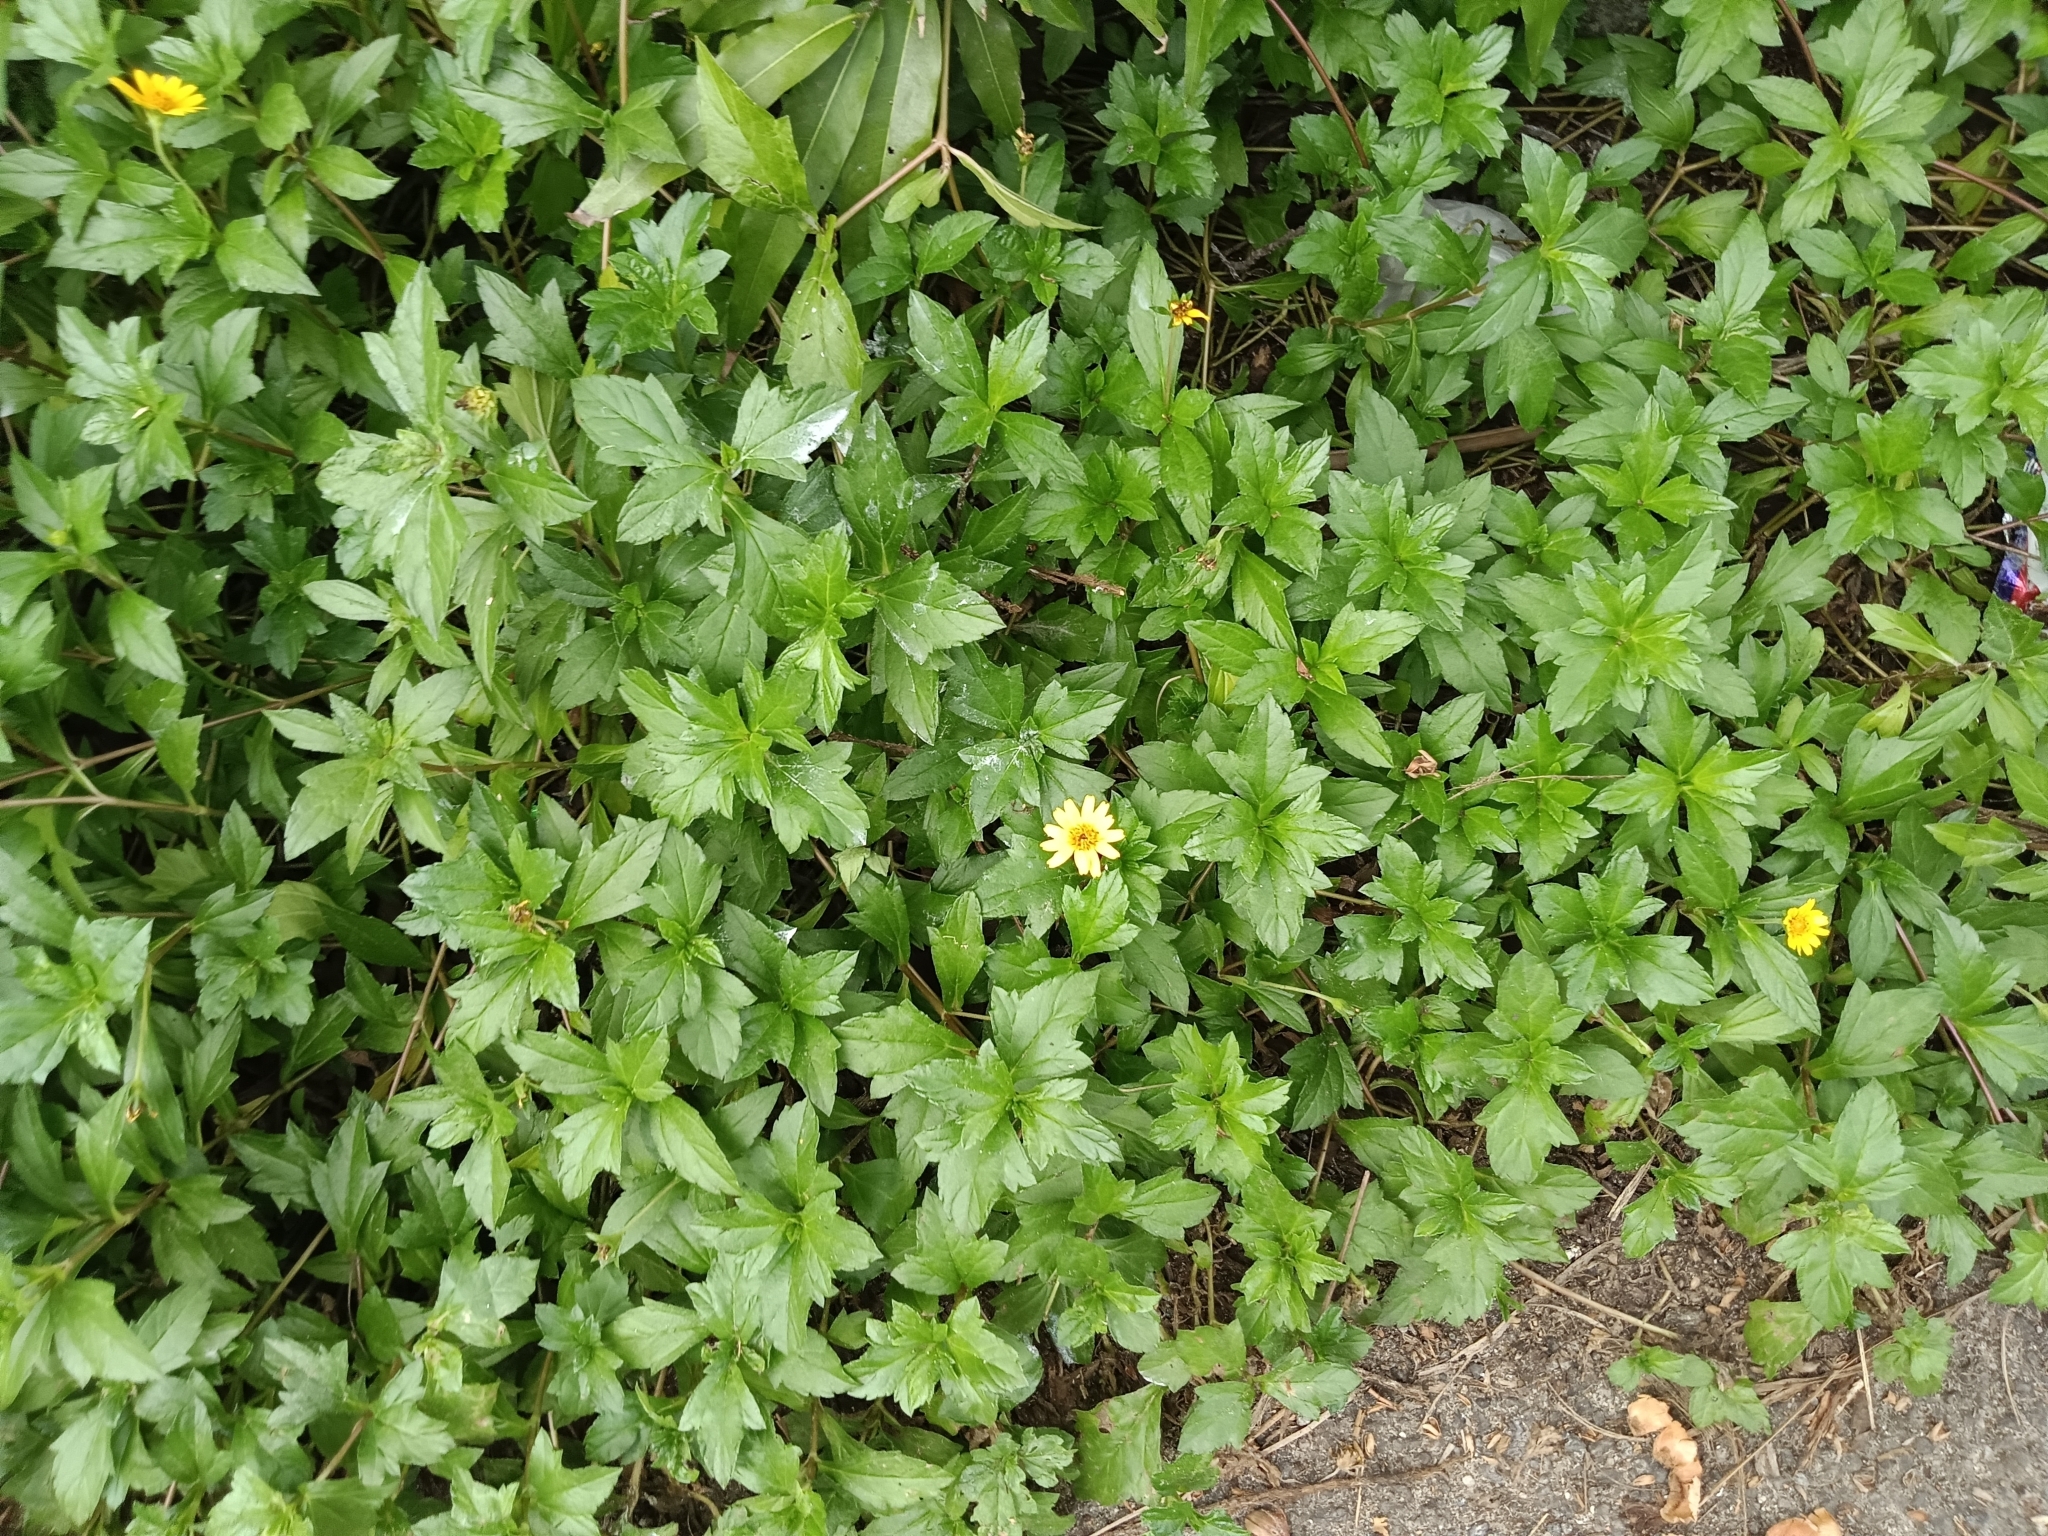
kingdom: Plantae
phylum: Tracheophyta
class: Magnoliopsida
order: Asterales
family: Asteraceae
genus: Sphagneticola
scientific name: Sphagneticola trilobata
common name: Bay biscayne creeping-oxeye
